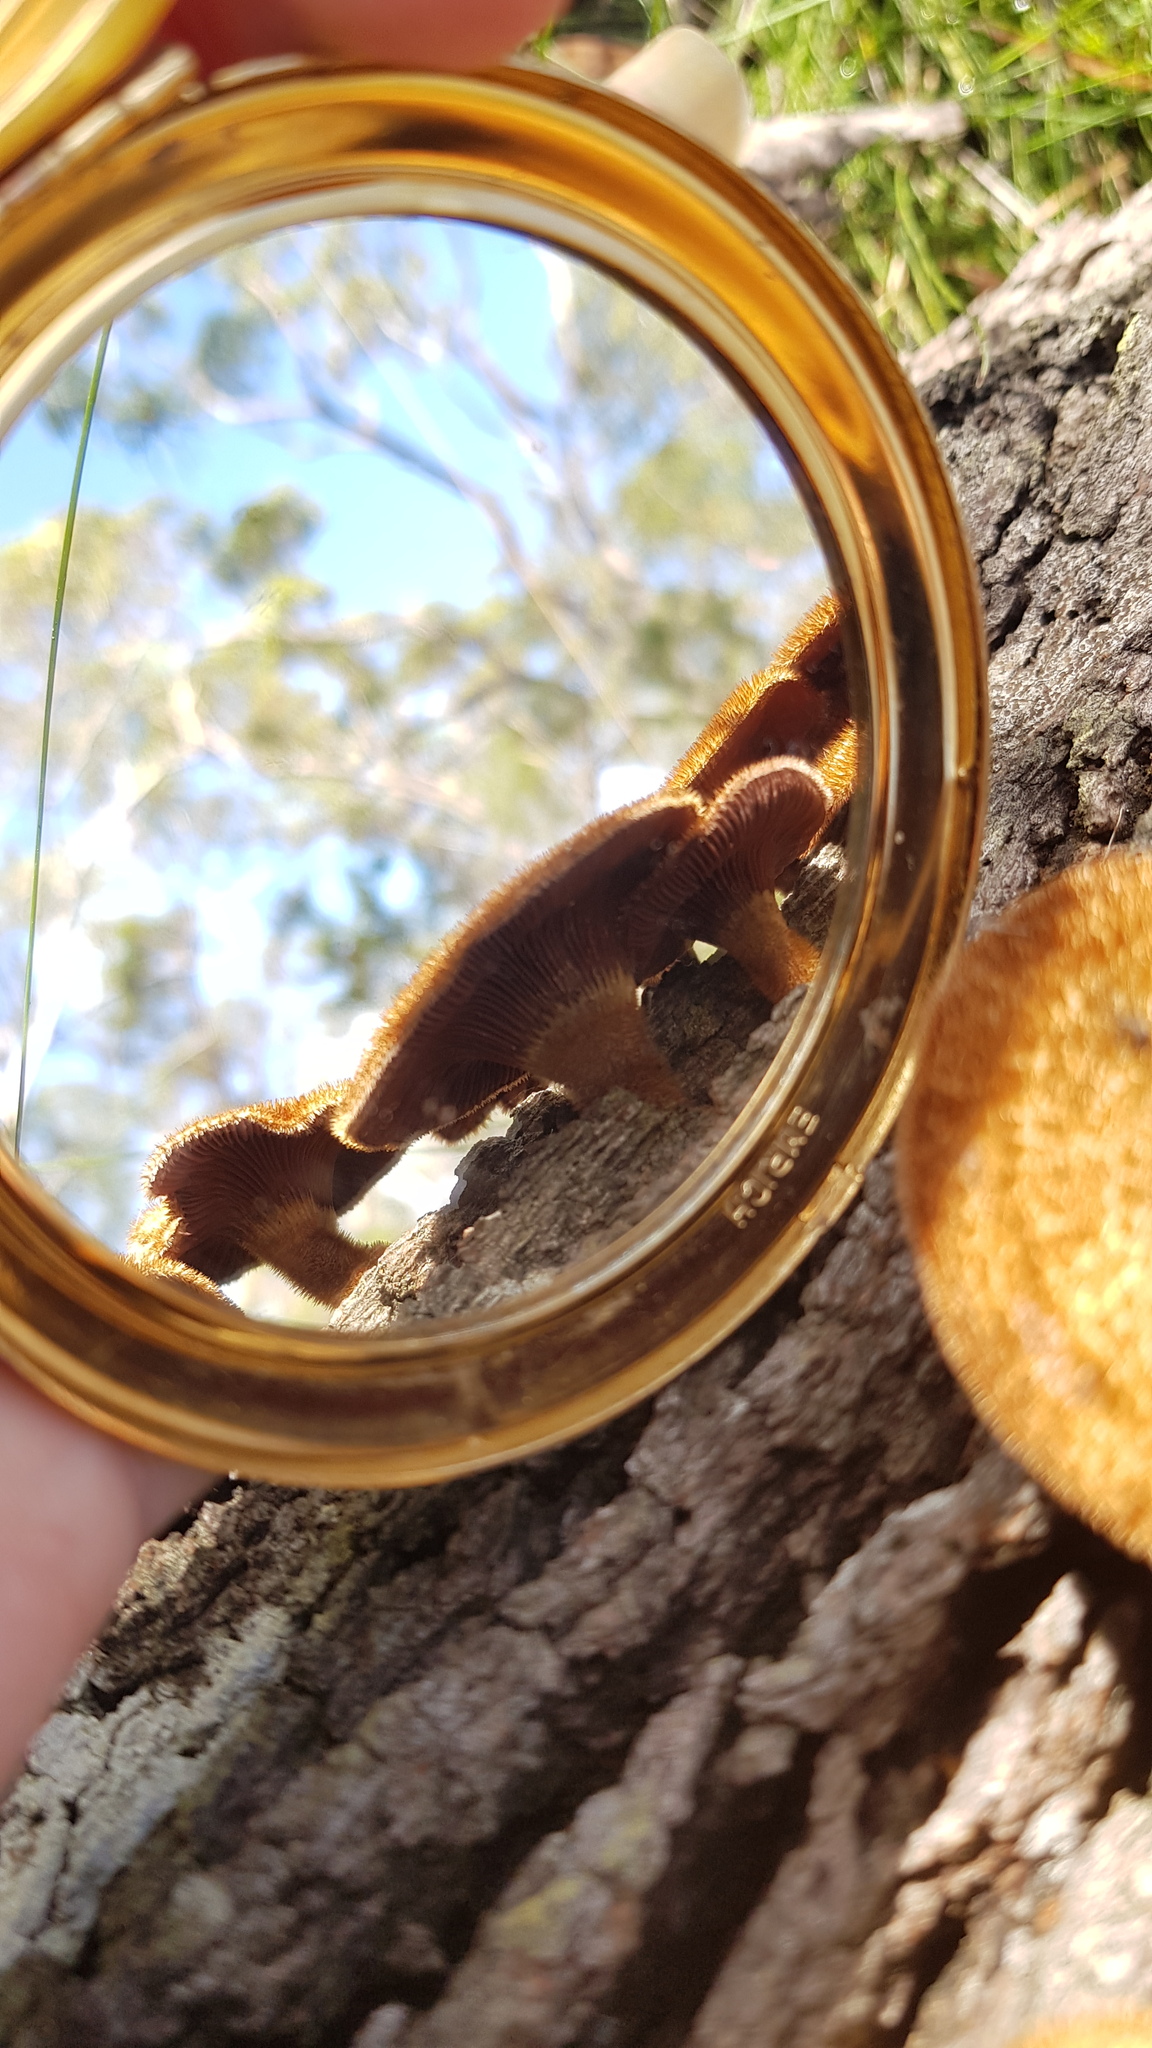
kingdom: Fungi
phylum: Basidiomycota
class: Agaricomycetes
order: Polyporales
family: Polyporaceae
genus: Lentinus
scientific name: Lentinus fasciatus
